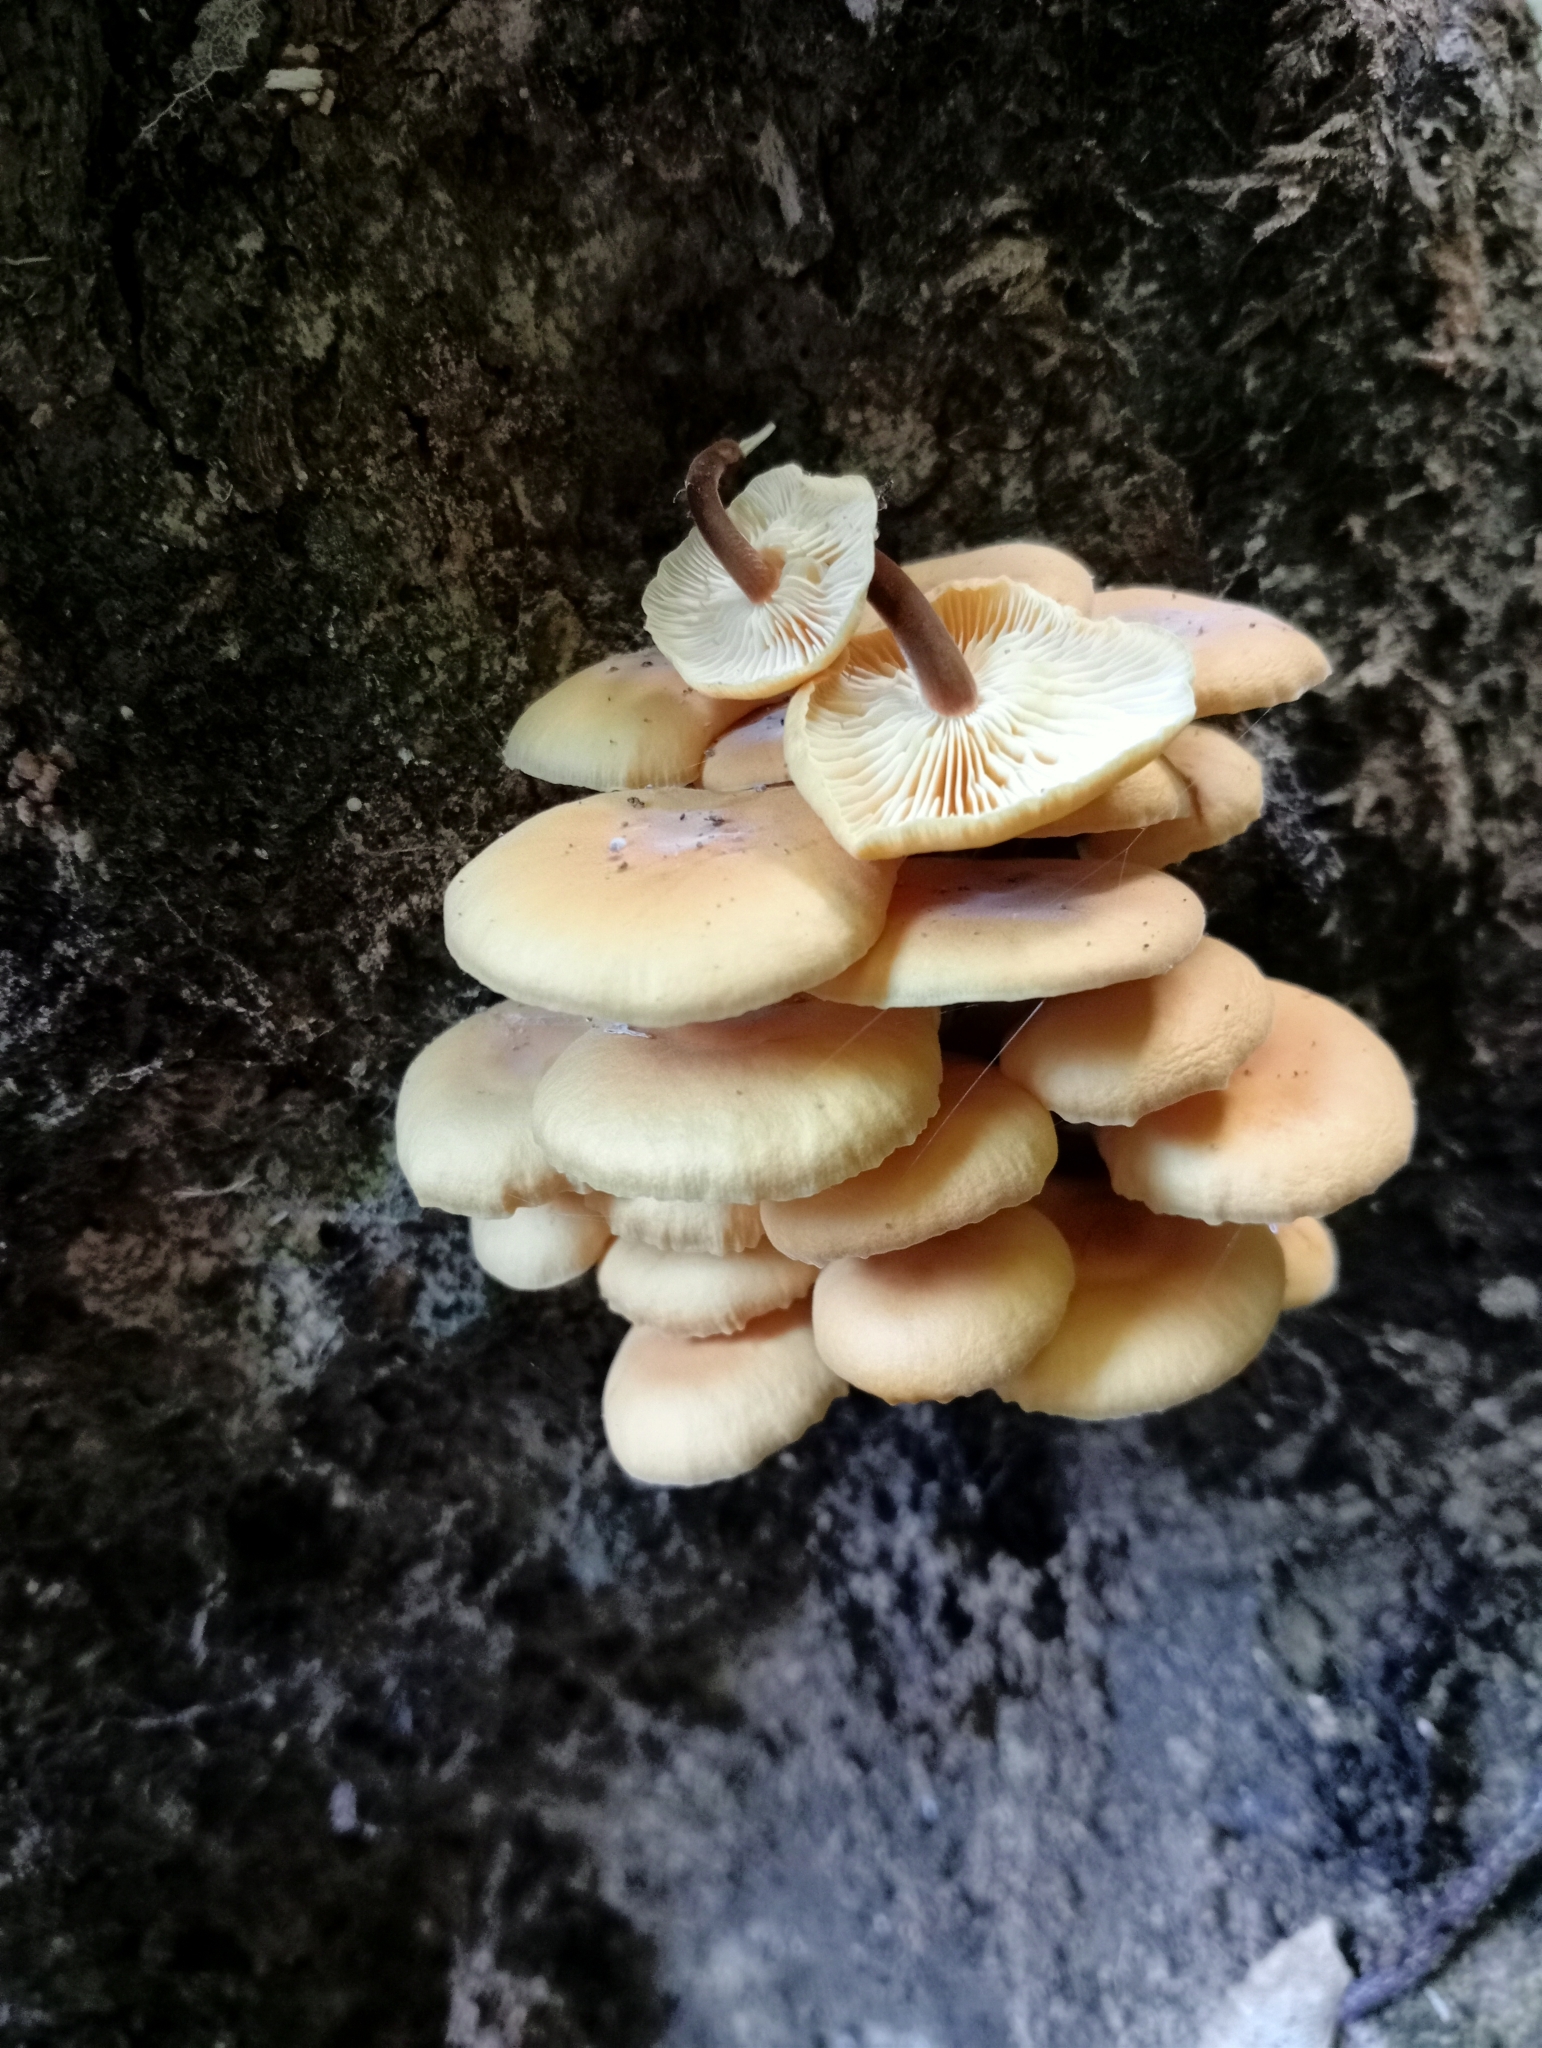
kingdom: Fungi
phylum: Basidiomycota
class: Agaricomycetes
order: Agaricales
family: Physalacriaceae
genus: Flammulina
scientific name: Flammulina velutipes
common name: Velvet shank
